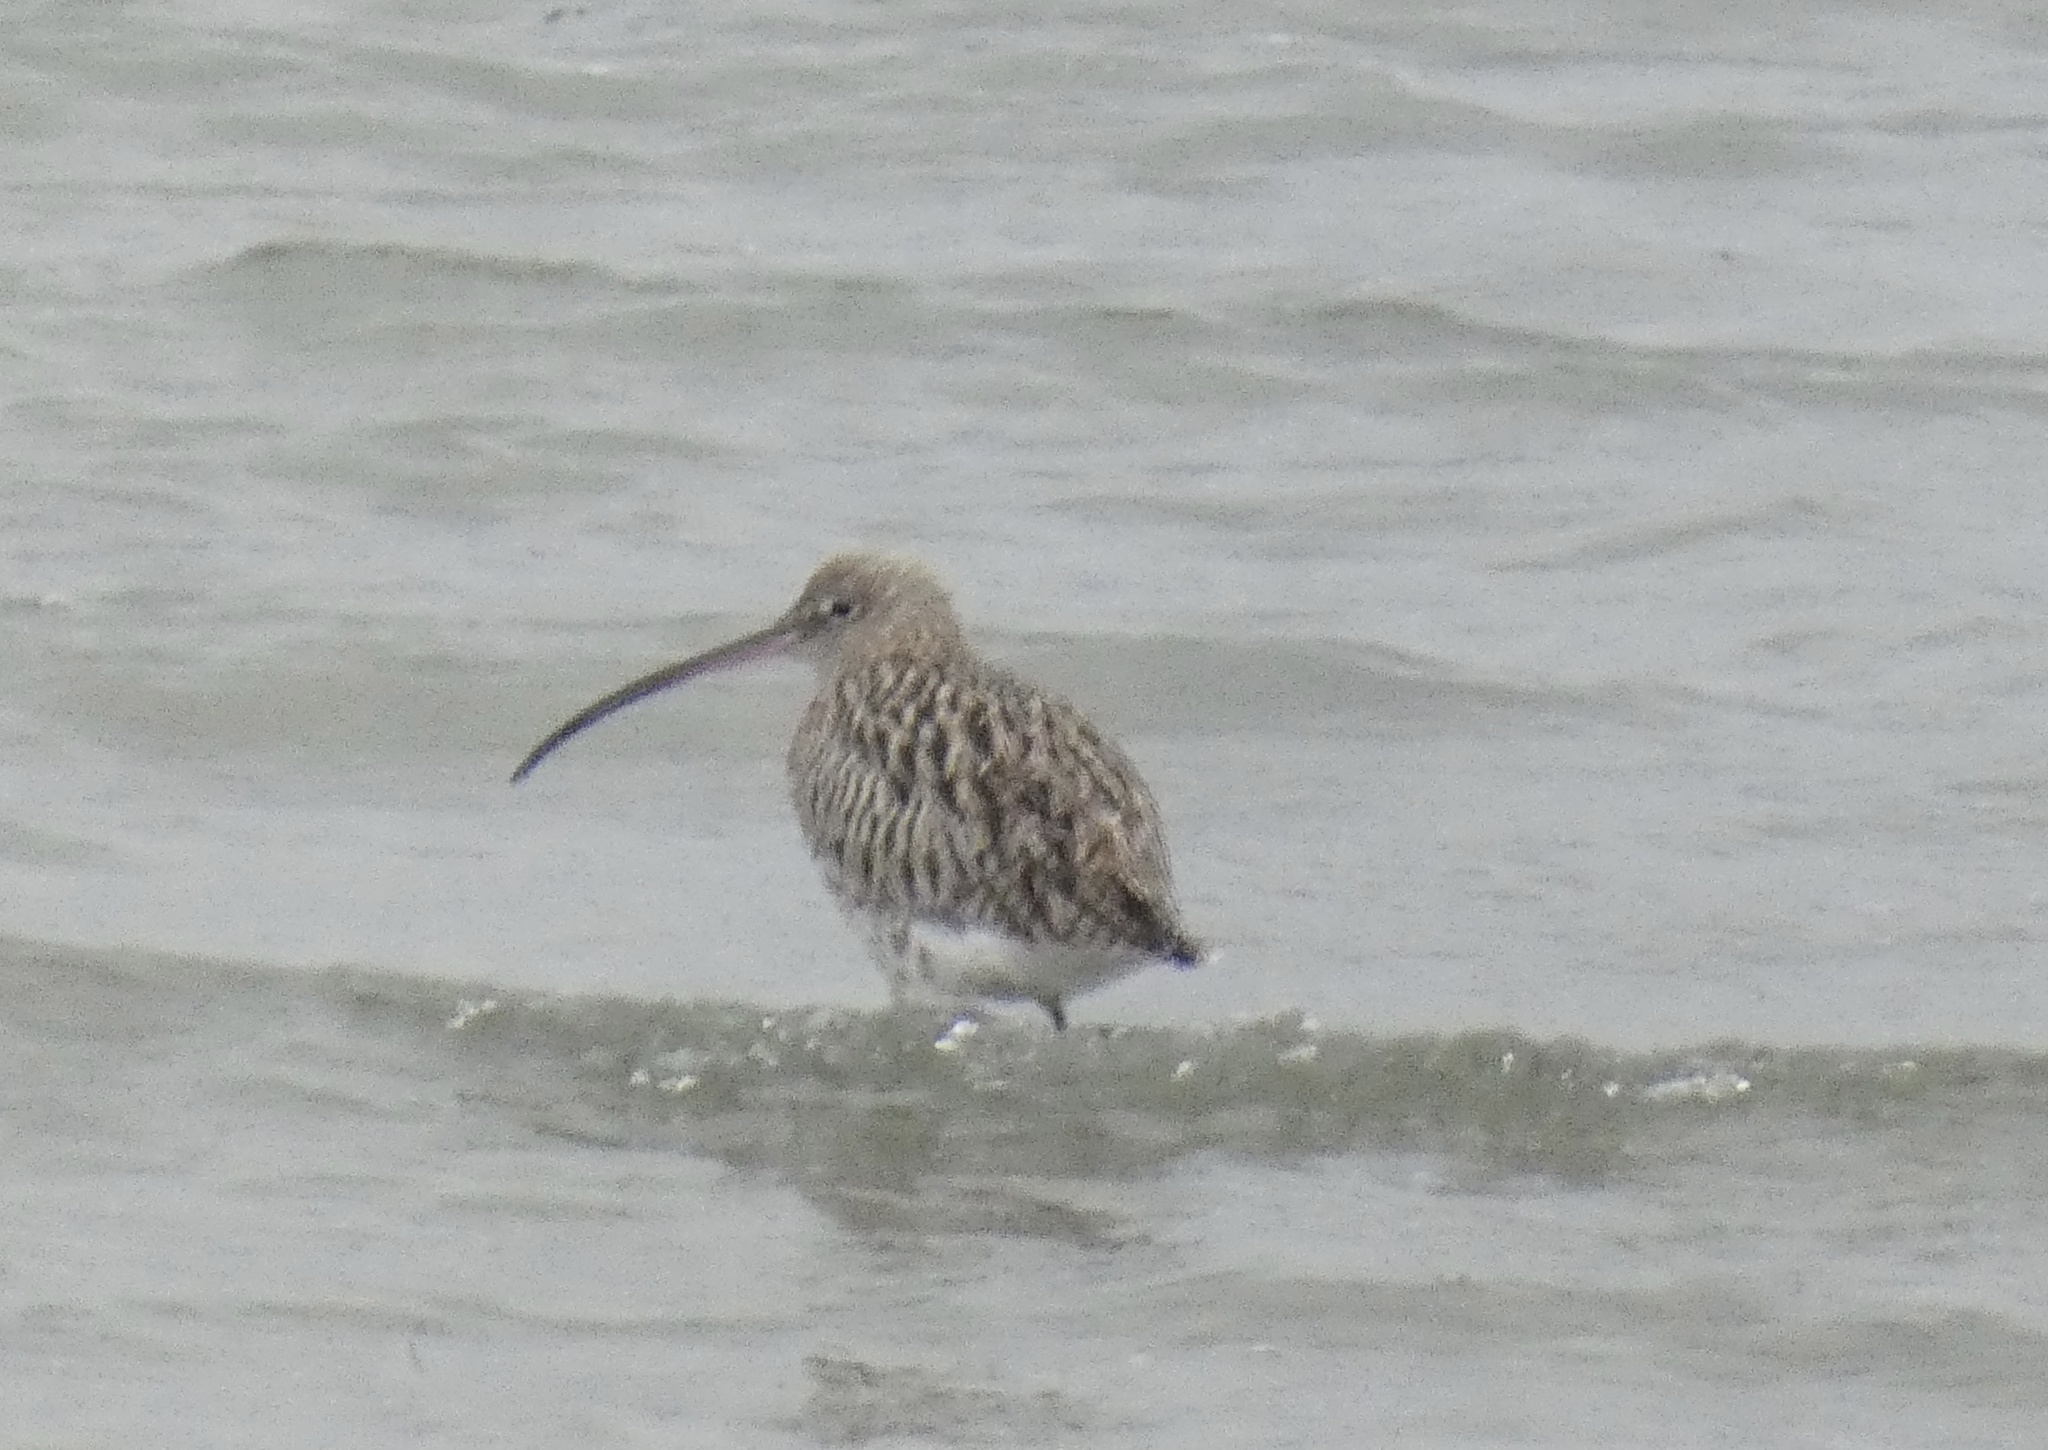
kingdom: Animalia
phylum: Chordata
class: Aves
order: Charadriiformes
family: Scolopacidae
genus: Numenius
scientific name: Numenius arquata
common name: Eurasian curlew
